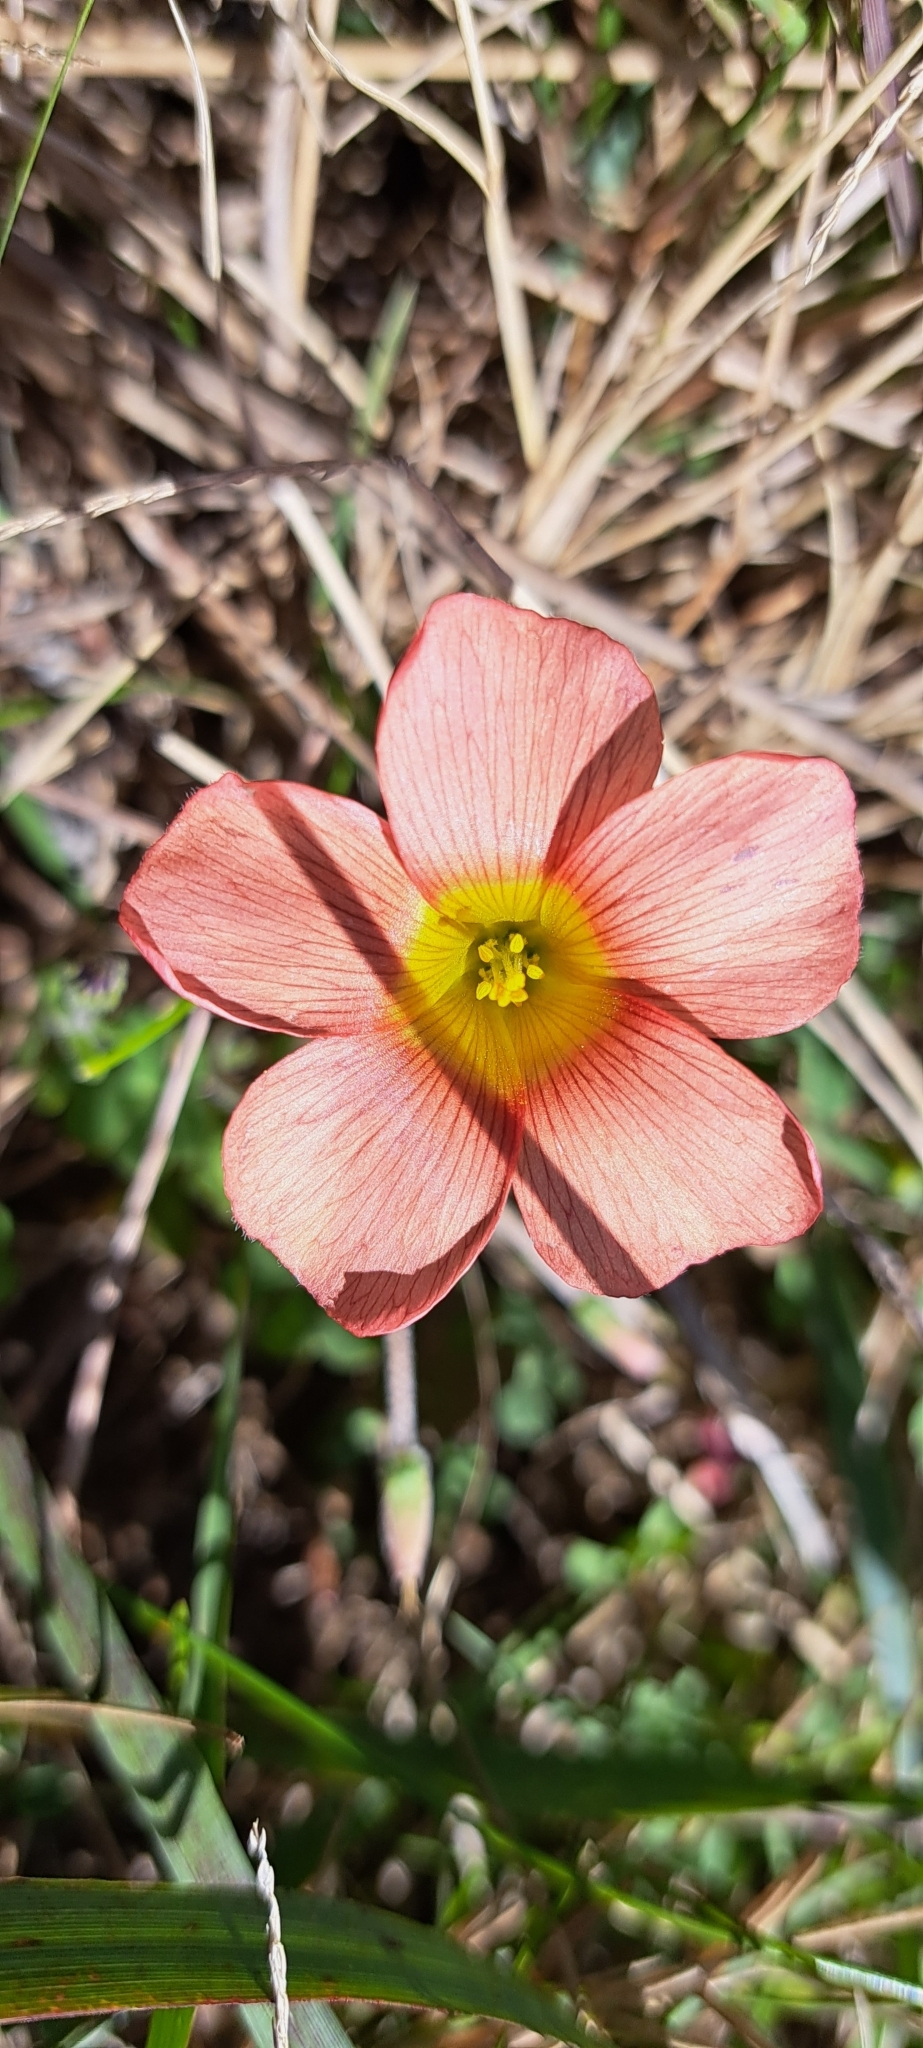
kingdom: Plantae
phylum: Tracheophyta
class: Magnoliopsida
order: Oxalidales
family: Oxalidaceae
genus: Oxalis
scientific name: Oxalis obtusa
